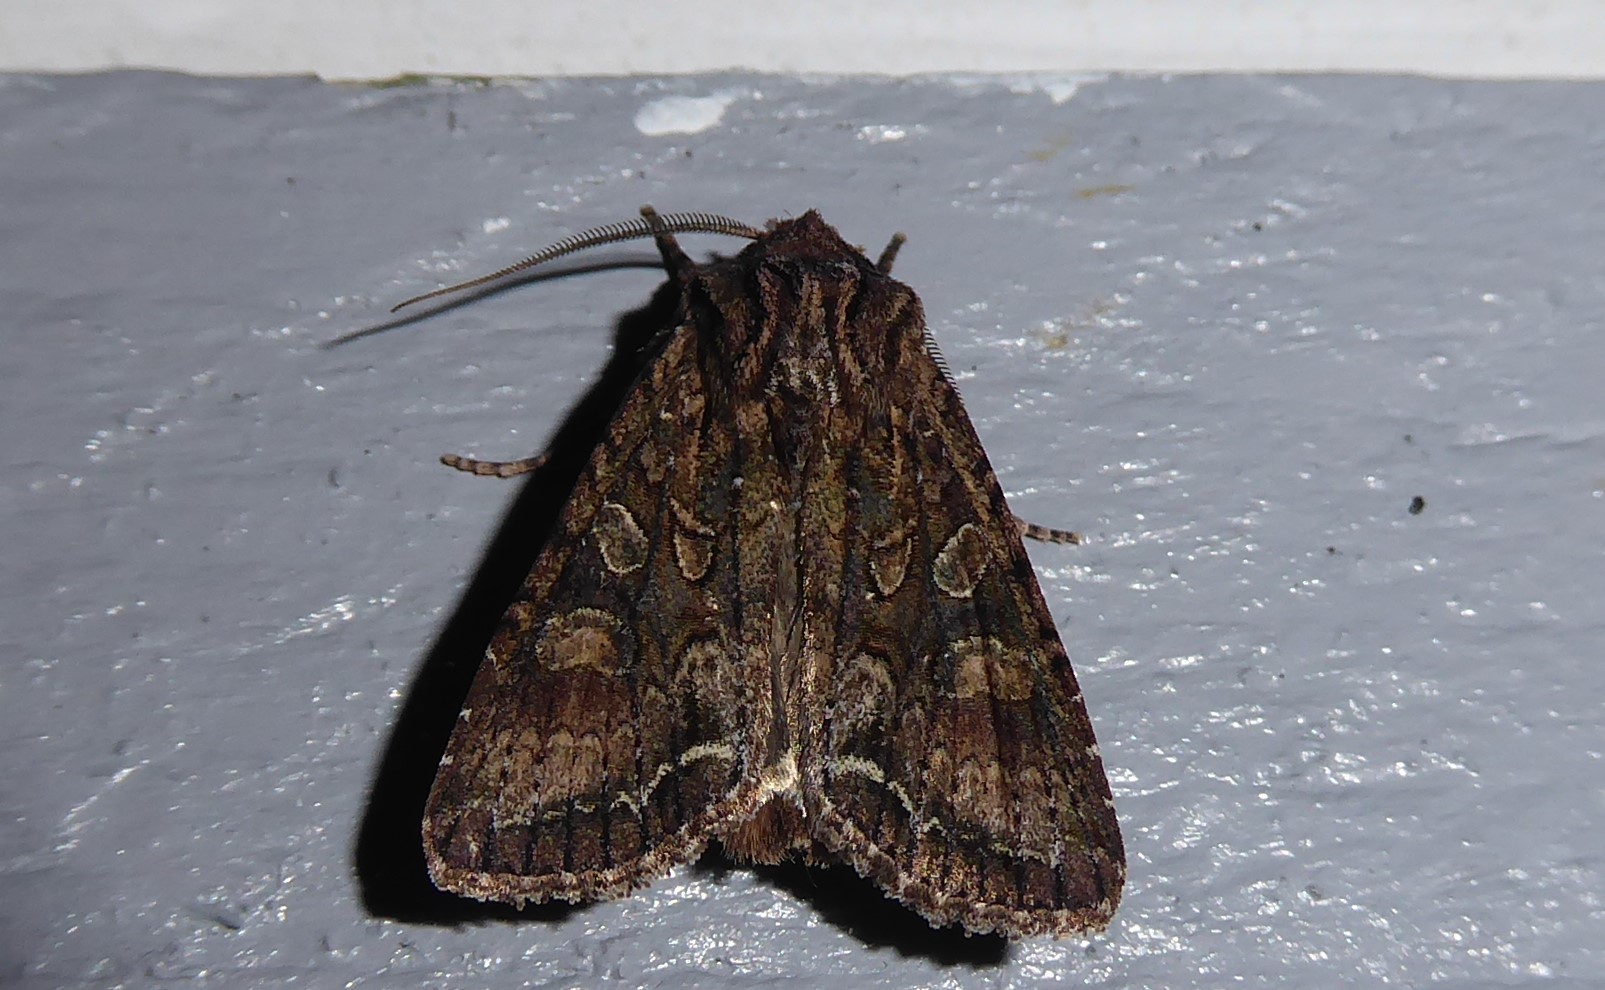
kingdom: Animalia
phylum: Arthropoda
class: Insecta
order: Lepidoptera
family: Noctuidae
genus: Ichneutica
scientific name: Ichneutica mutans
